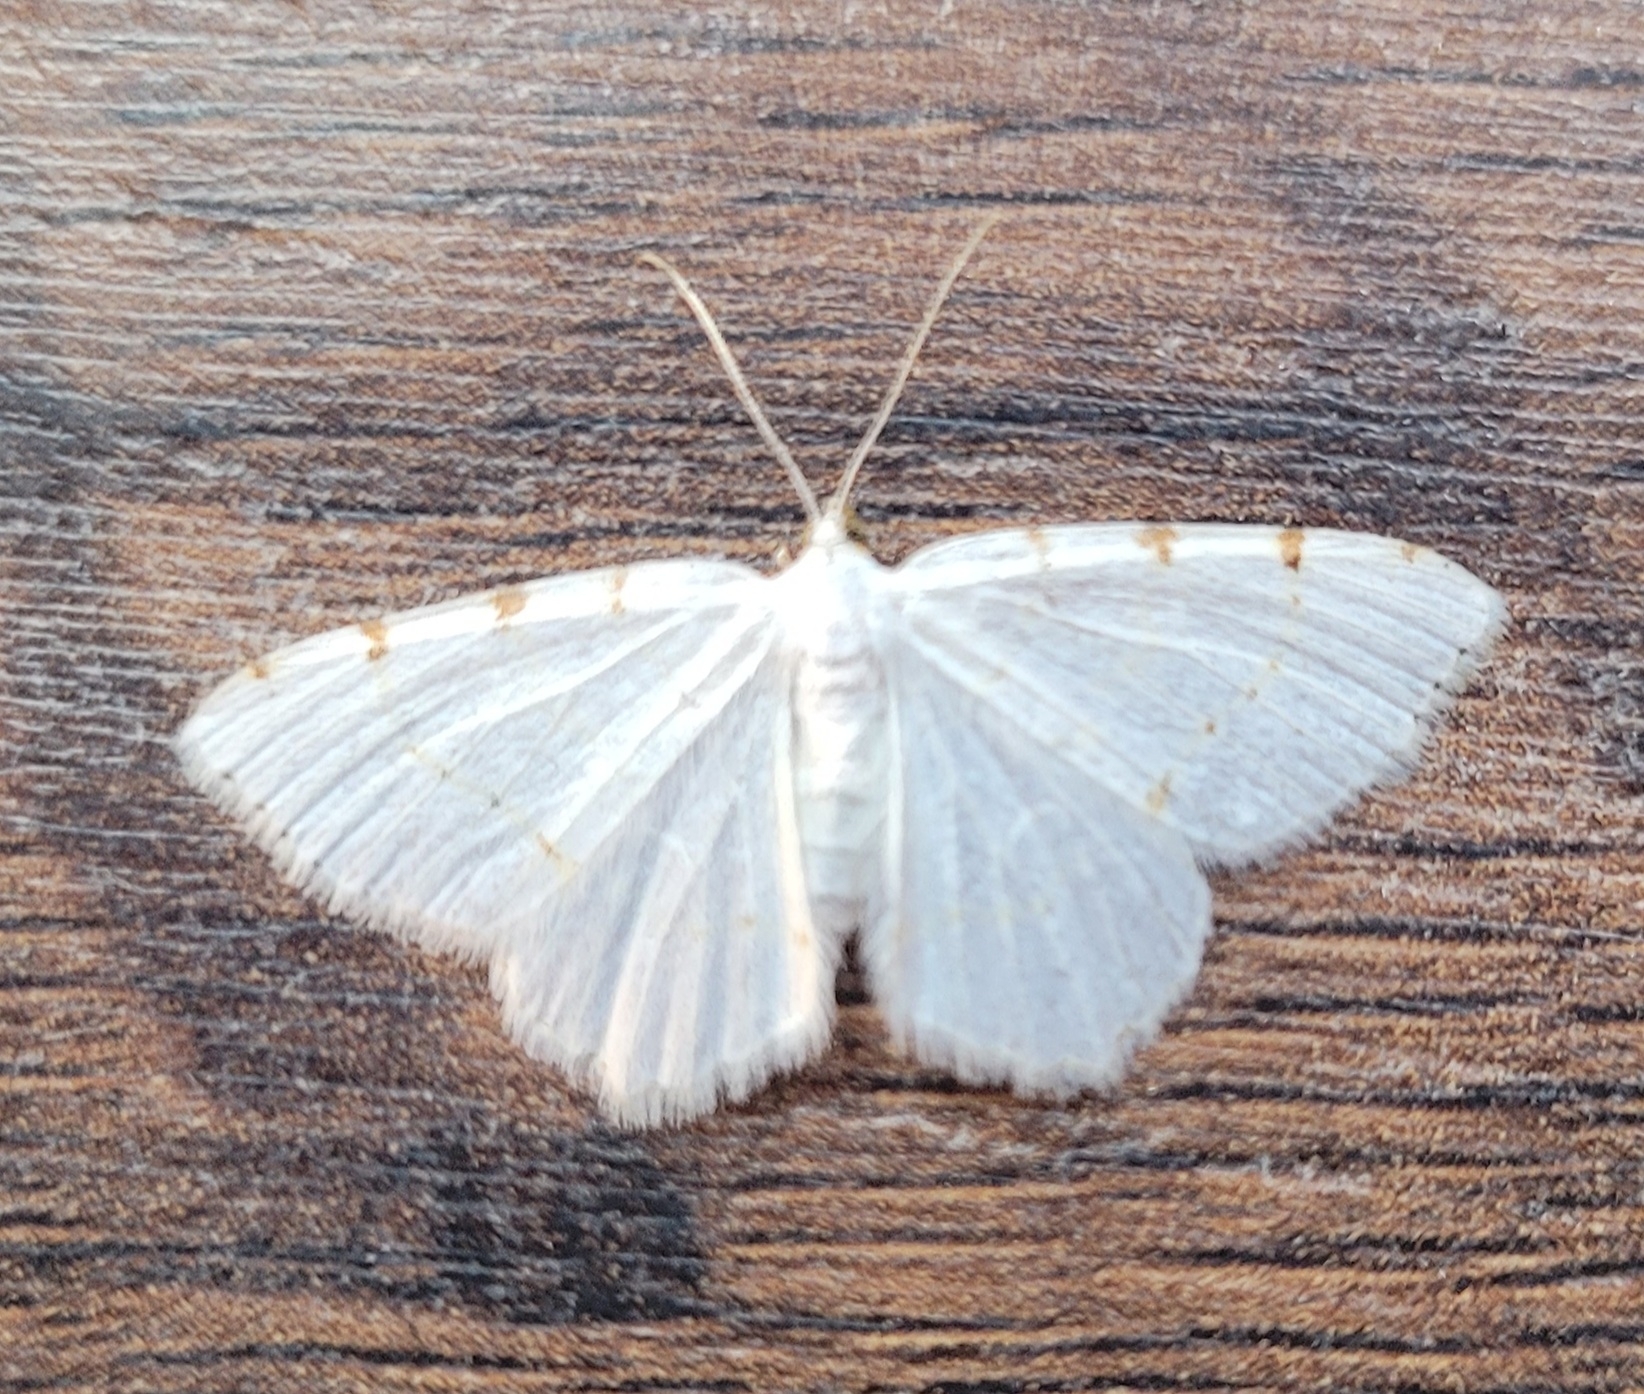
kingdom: Animalia
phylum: Arthropoda
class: Insecta
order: Lepidoptera
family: Geometridae
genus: Macaria
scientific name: Macaria pustularia
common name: Lesser maple spanworm moth
